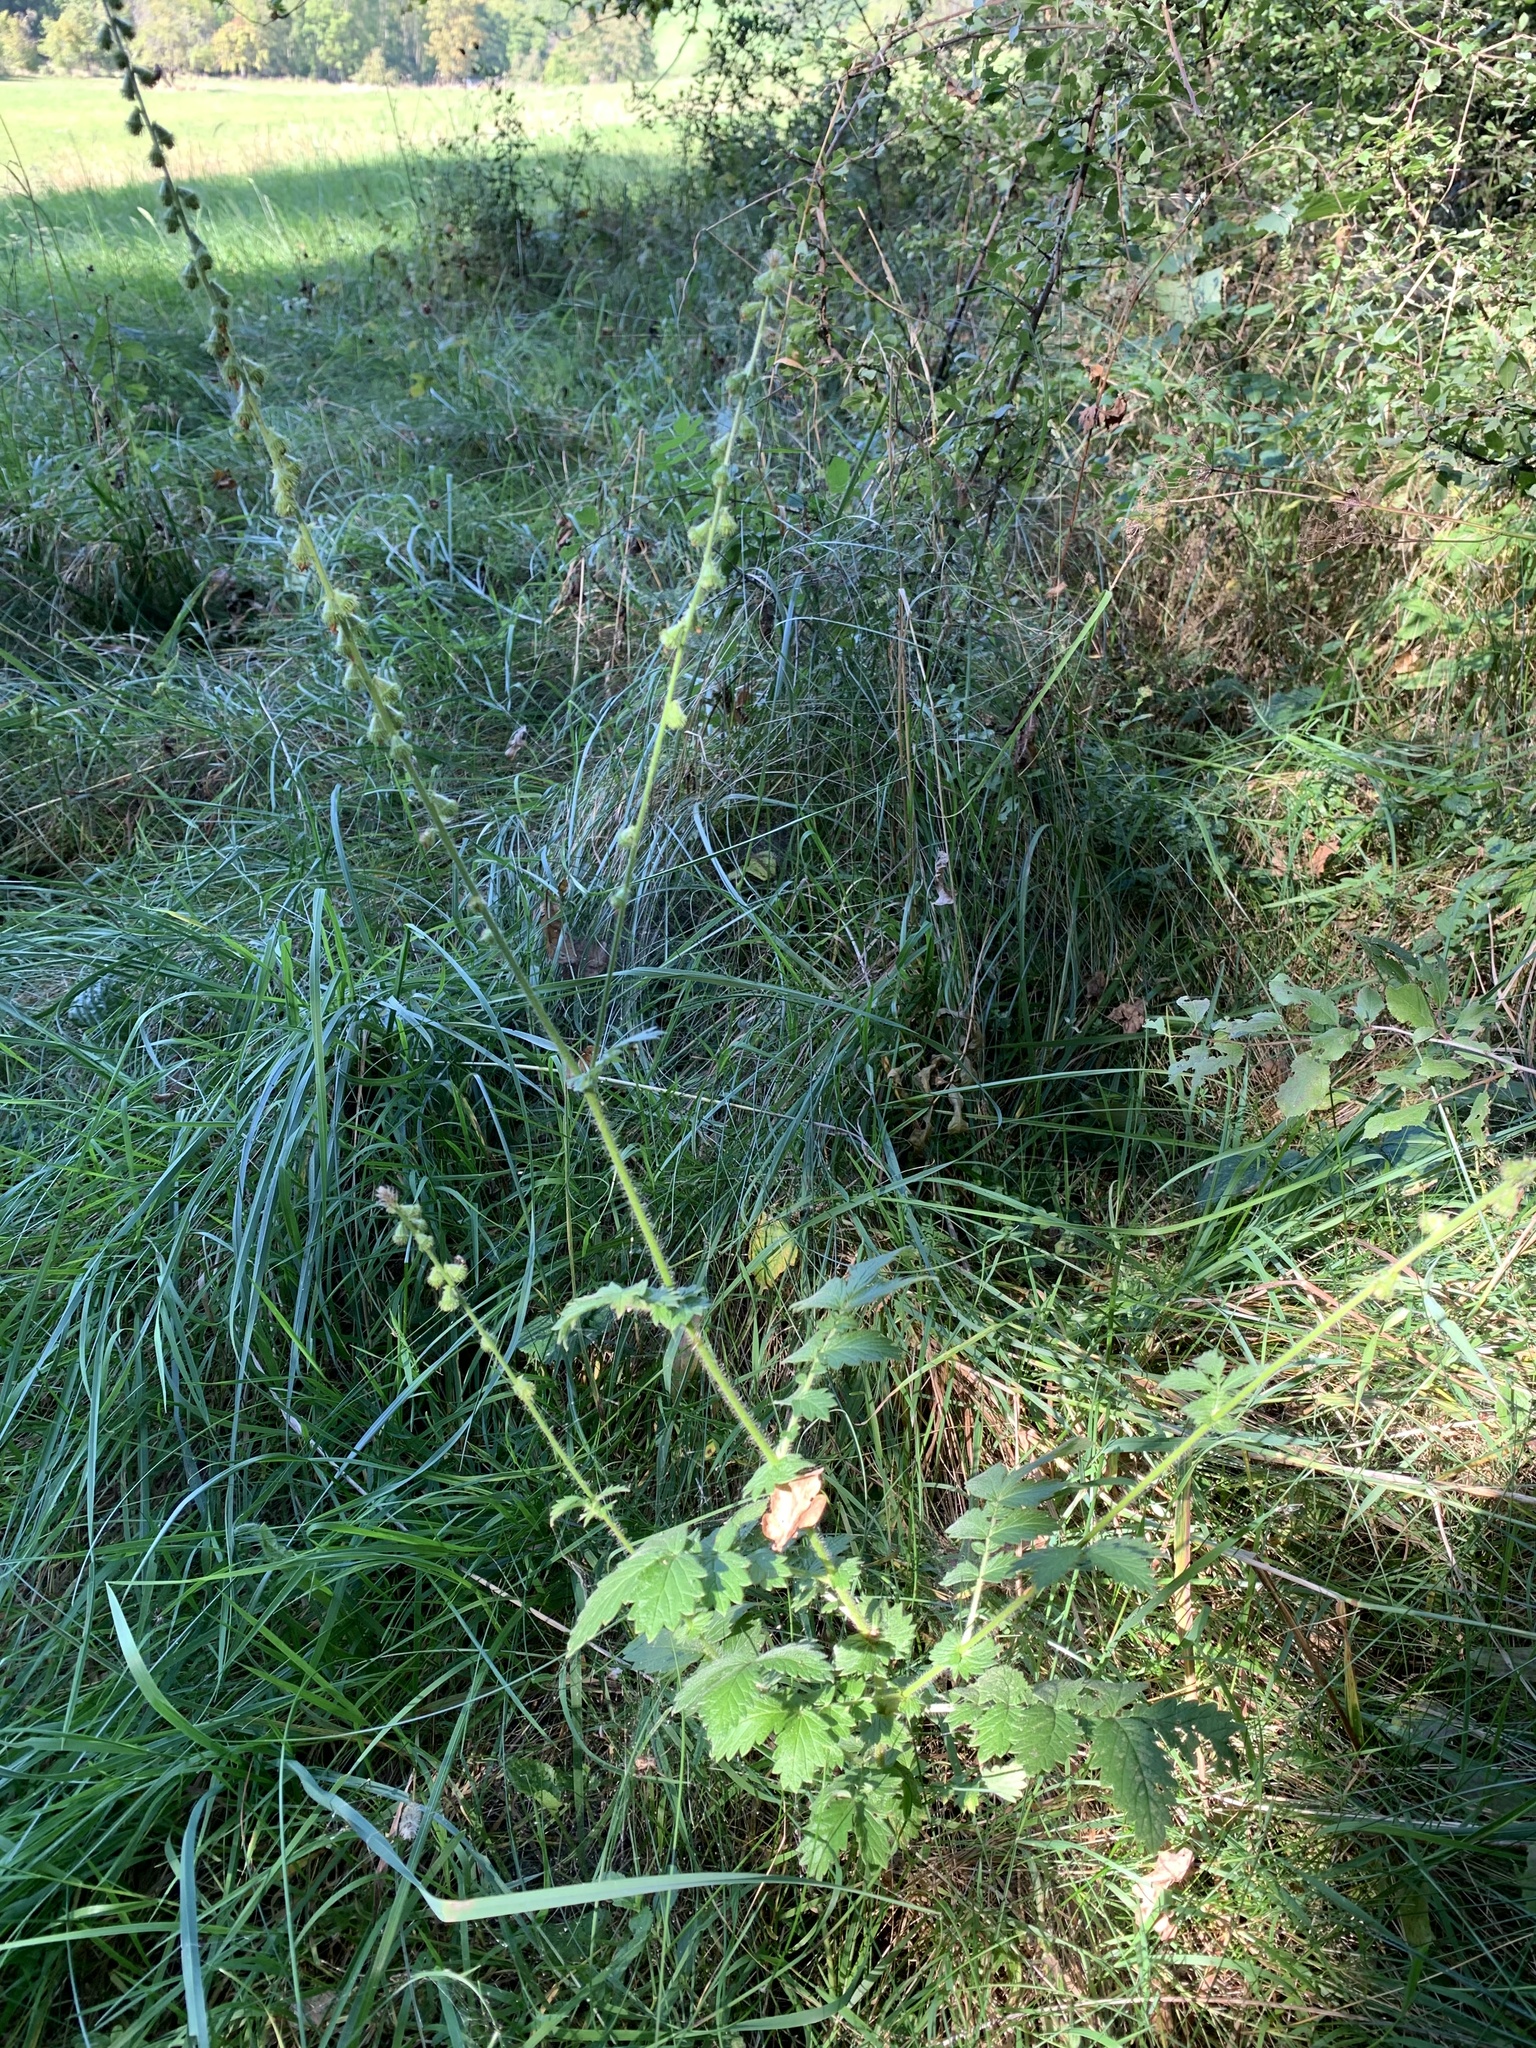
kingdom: Plantae
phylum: Tracheophyta
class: Magnoliopsida
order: Rosales
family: Rosaceae
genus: Agrimonia
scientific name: Agrimonia eupatoria
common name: Agrimony
